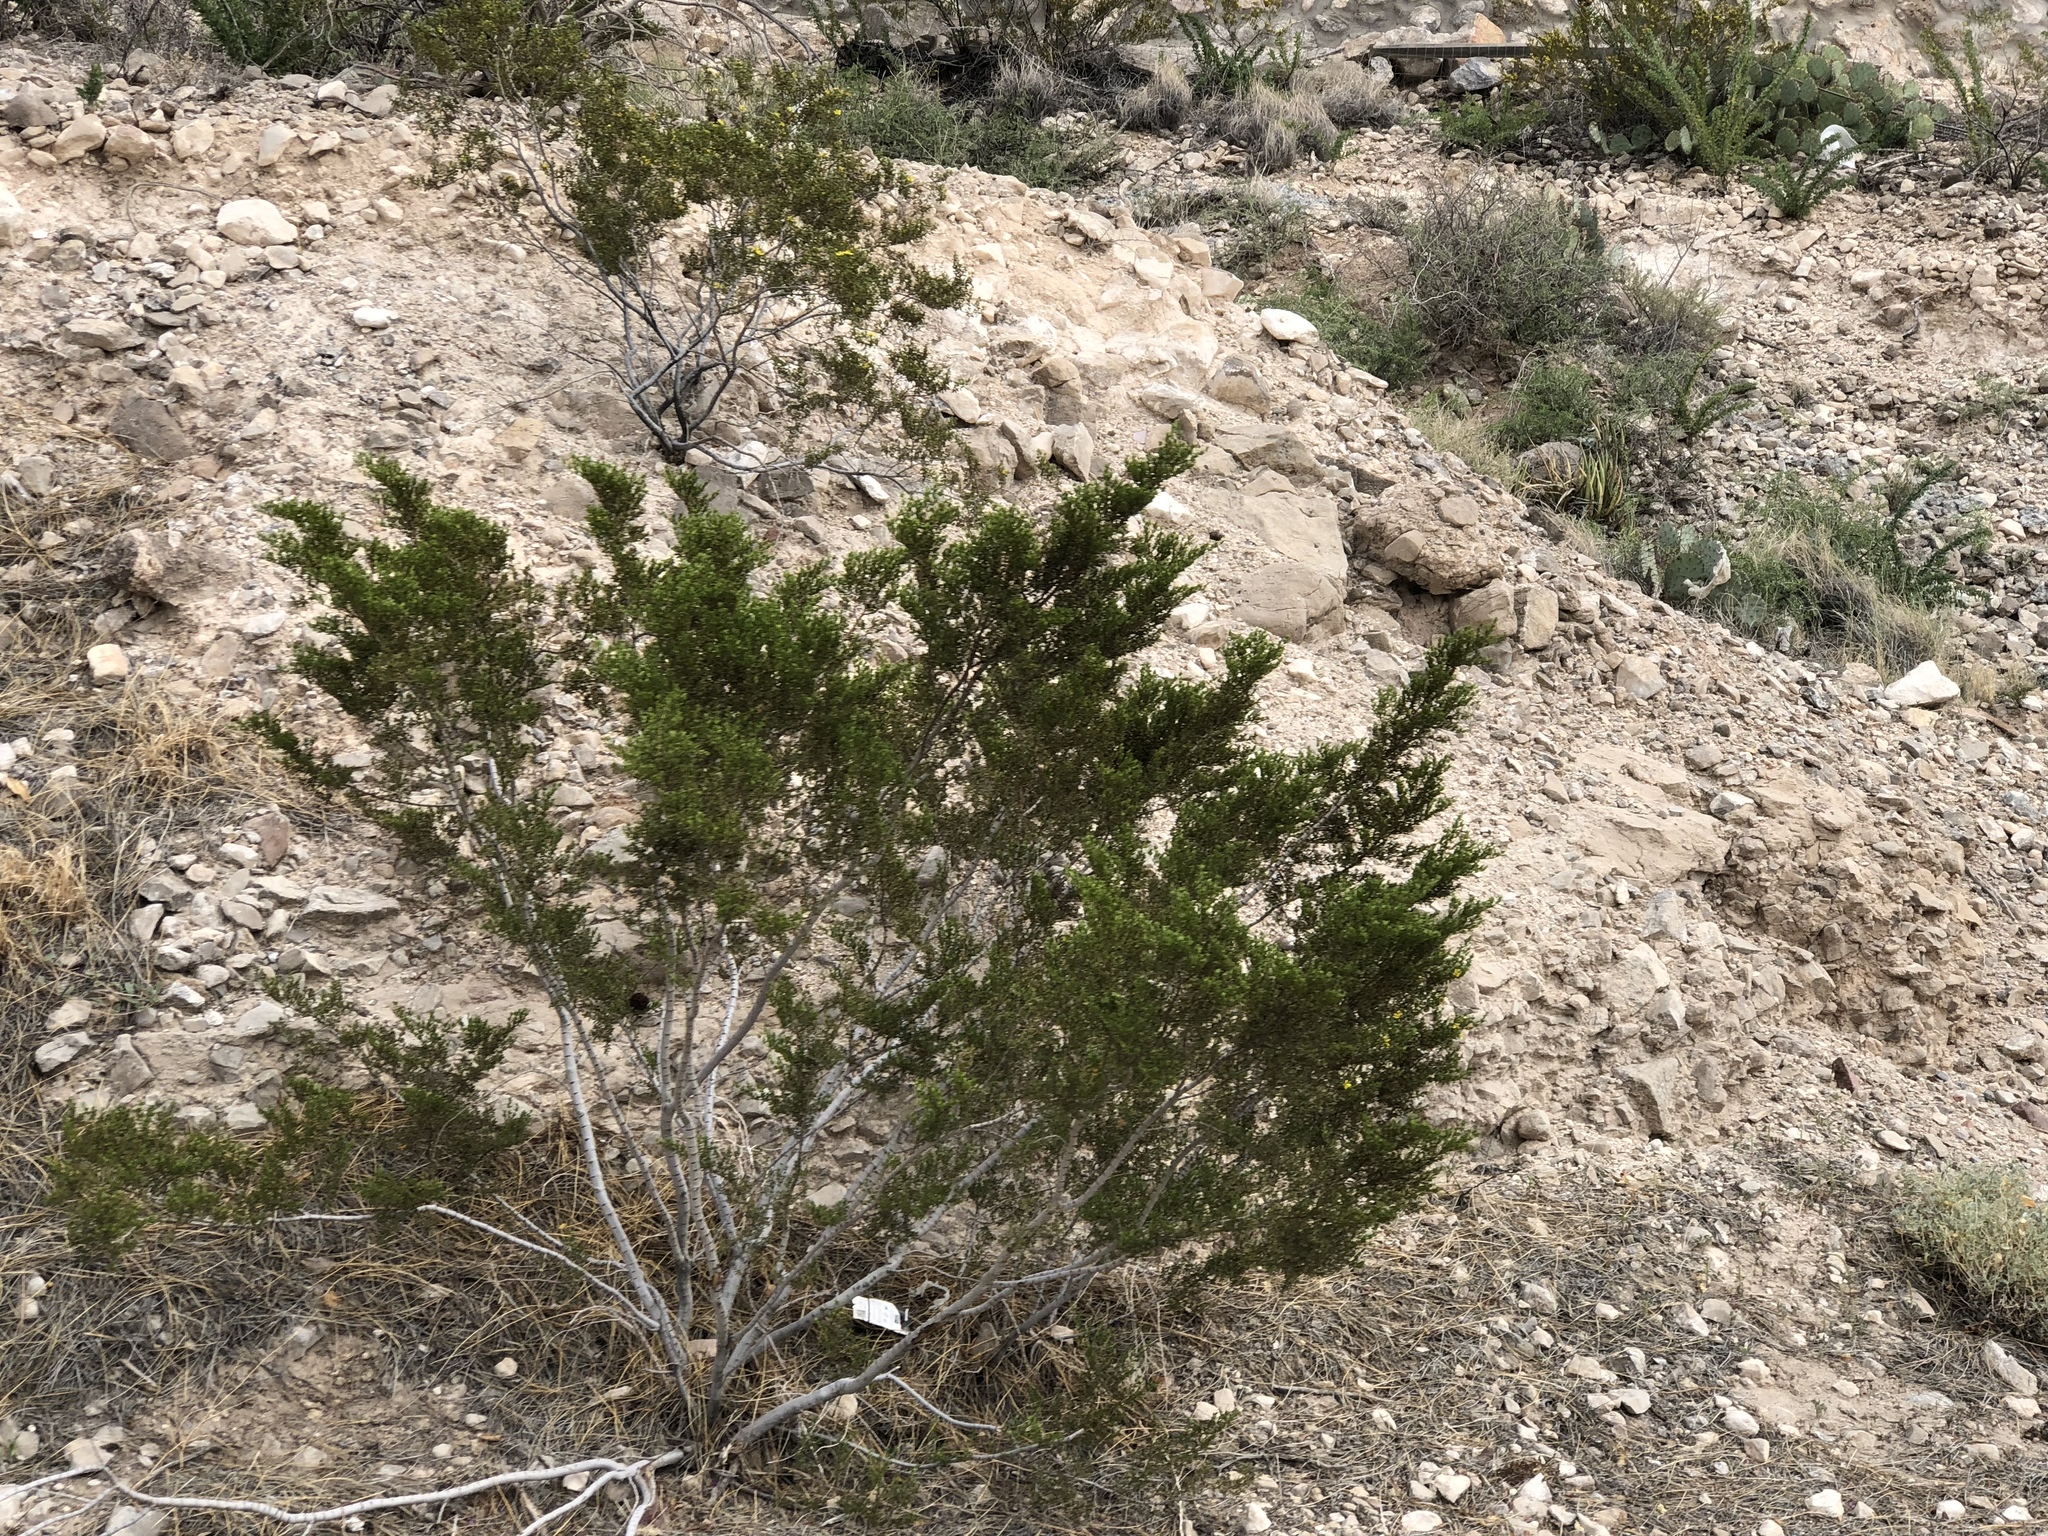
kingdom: Plantae
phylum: Tracheophyta
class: Magnoliopsida
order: Zygophyllales
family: Zygophyllaceae
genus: Larrea
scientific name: Larrea tridentata
